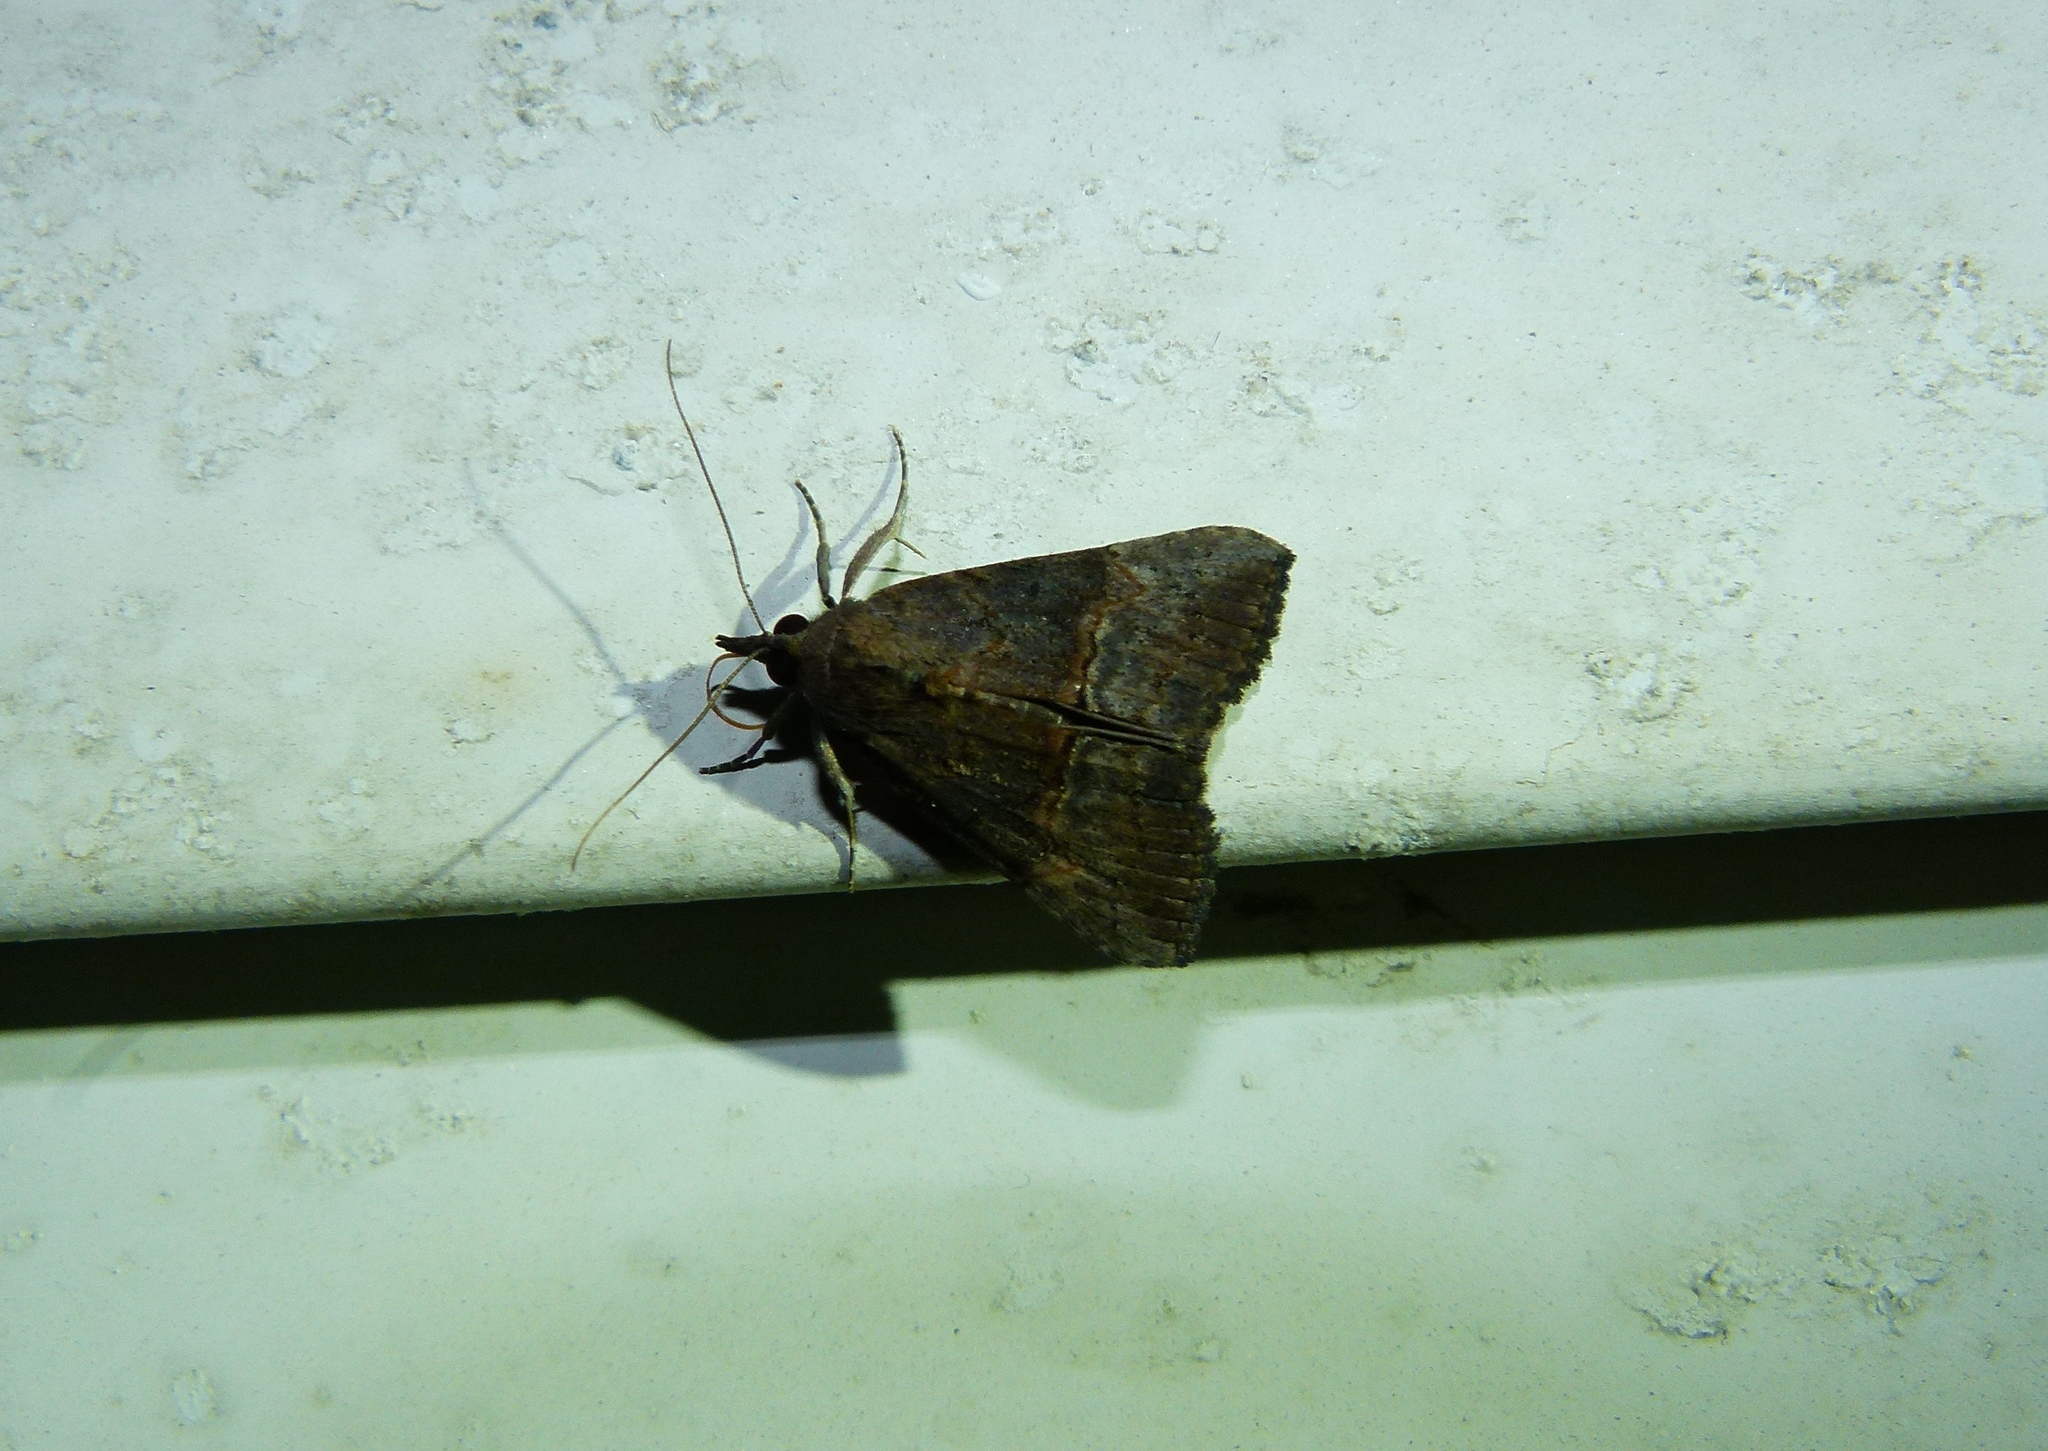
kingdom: Animalia
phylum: Arthropoda
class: Insecta
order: Lepidoptera
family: Erebidae
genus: Hypena
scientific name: Hypena scabra
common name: Green cloverworm
